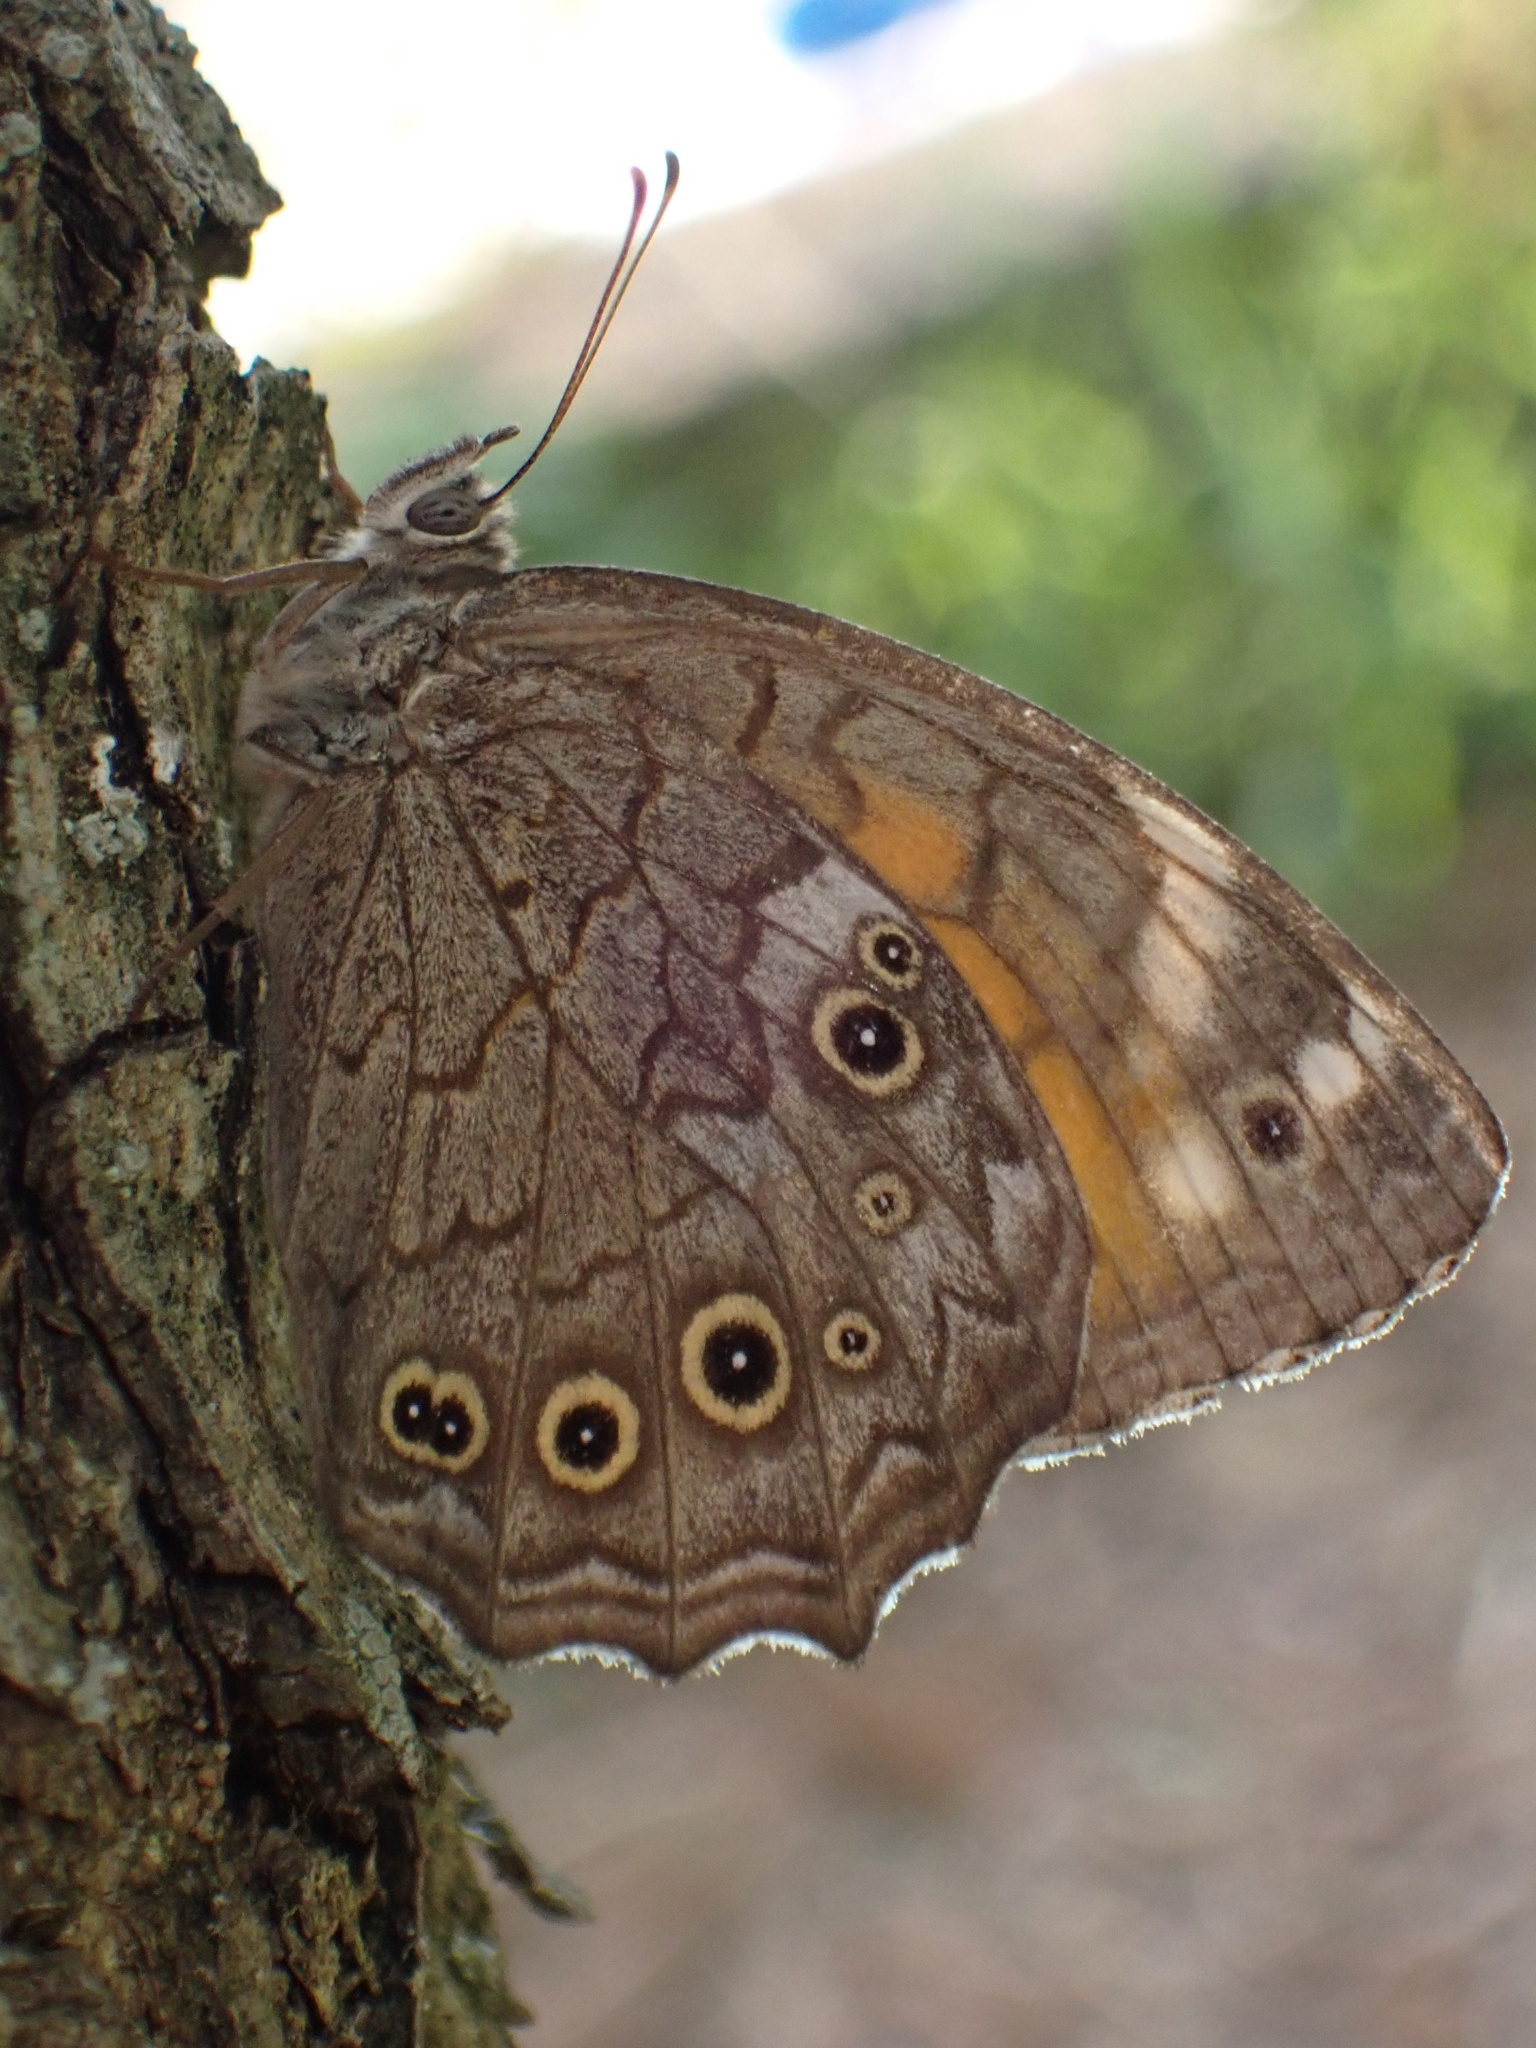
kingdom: Animalia
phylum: Arthropoda
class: Insecta
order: Lepidoptera
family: Nymphalidae
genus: Kirinia
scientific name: Kirinia roxelana
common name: Lattice brown
